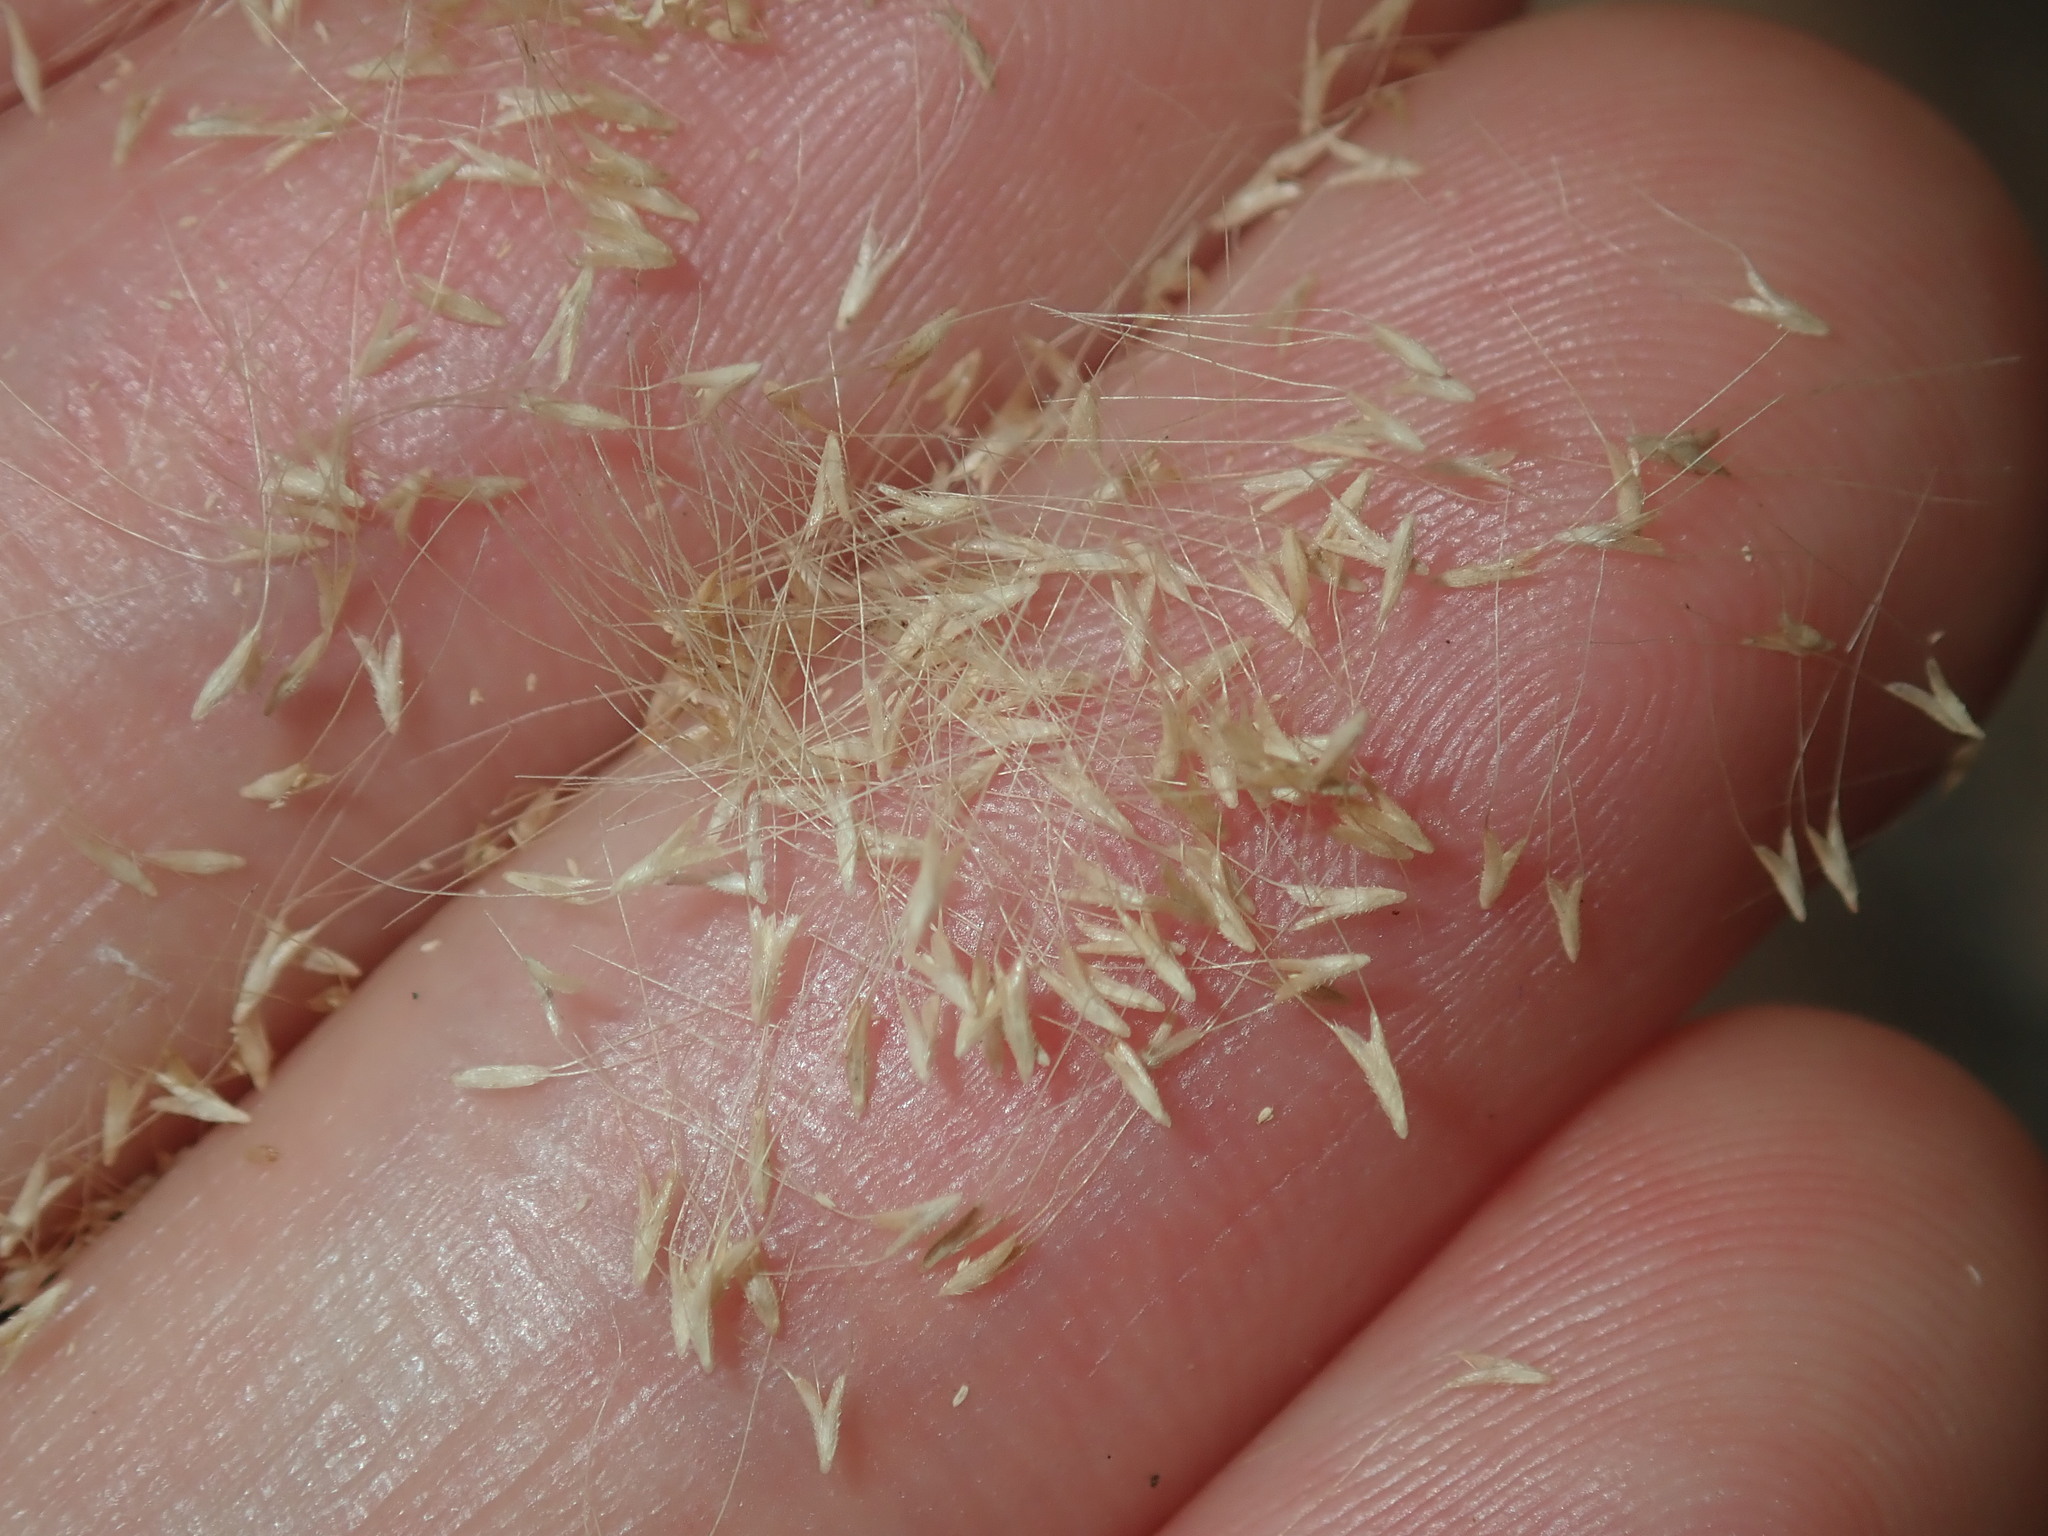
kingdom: Plantae
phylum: Tracheophyta
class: Liliopsida
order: Poales
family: Poaceae
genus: Polypogon
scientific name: Polypogon monspeliensis
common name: Annual rabbitsfoot grass
